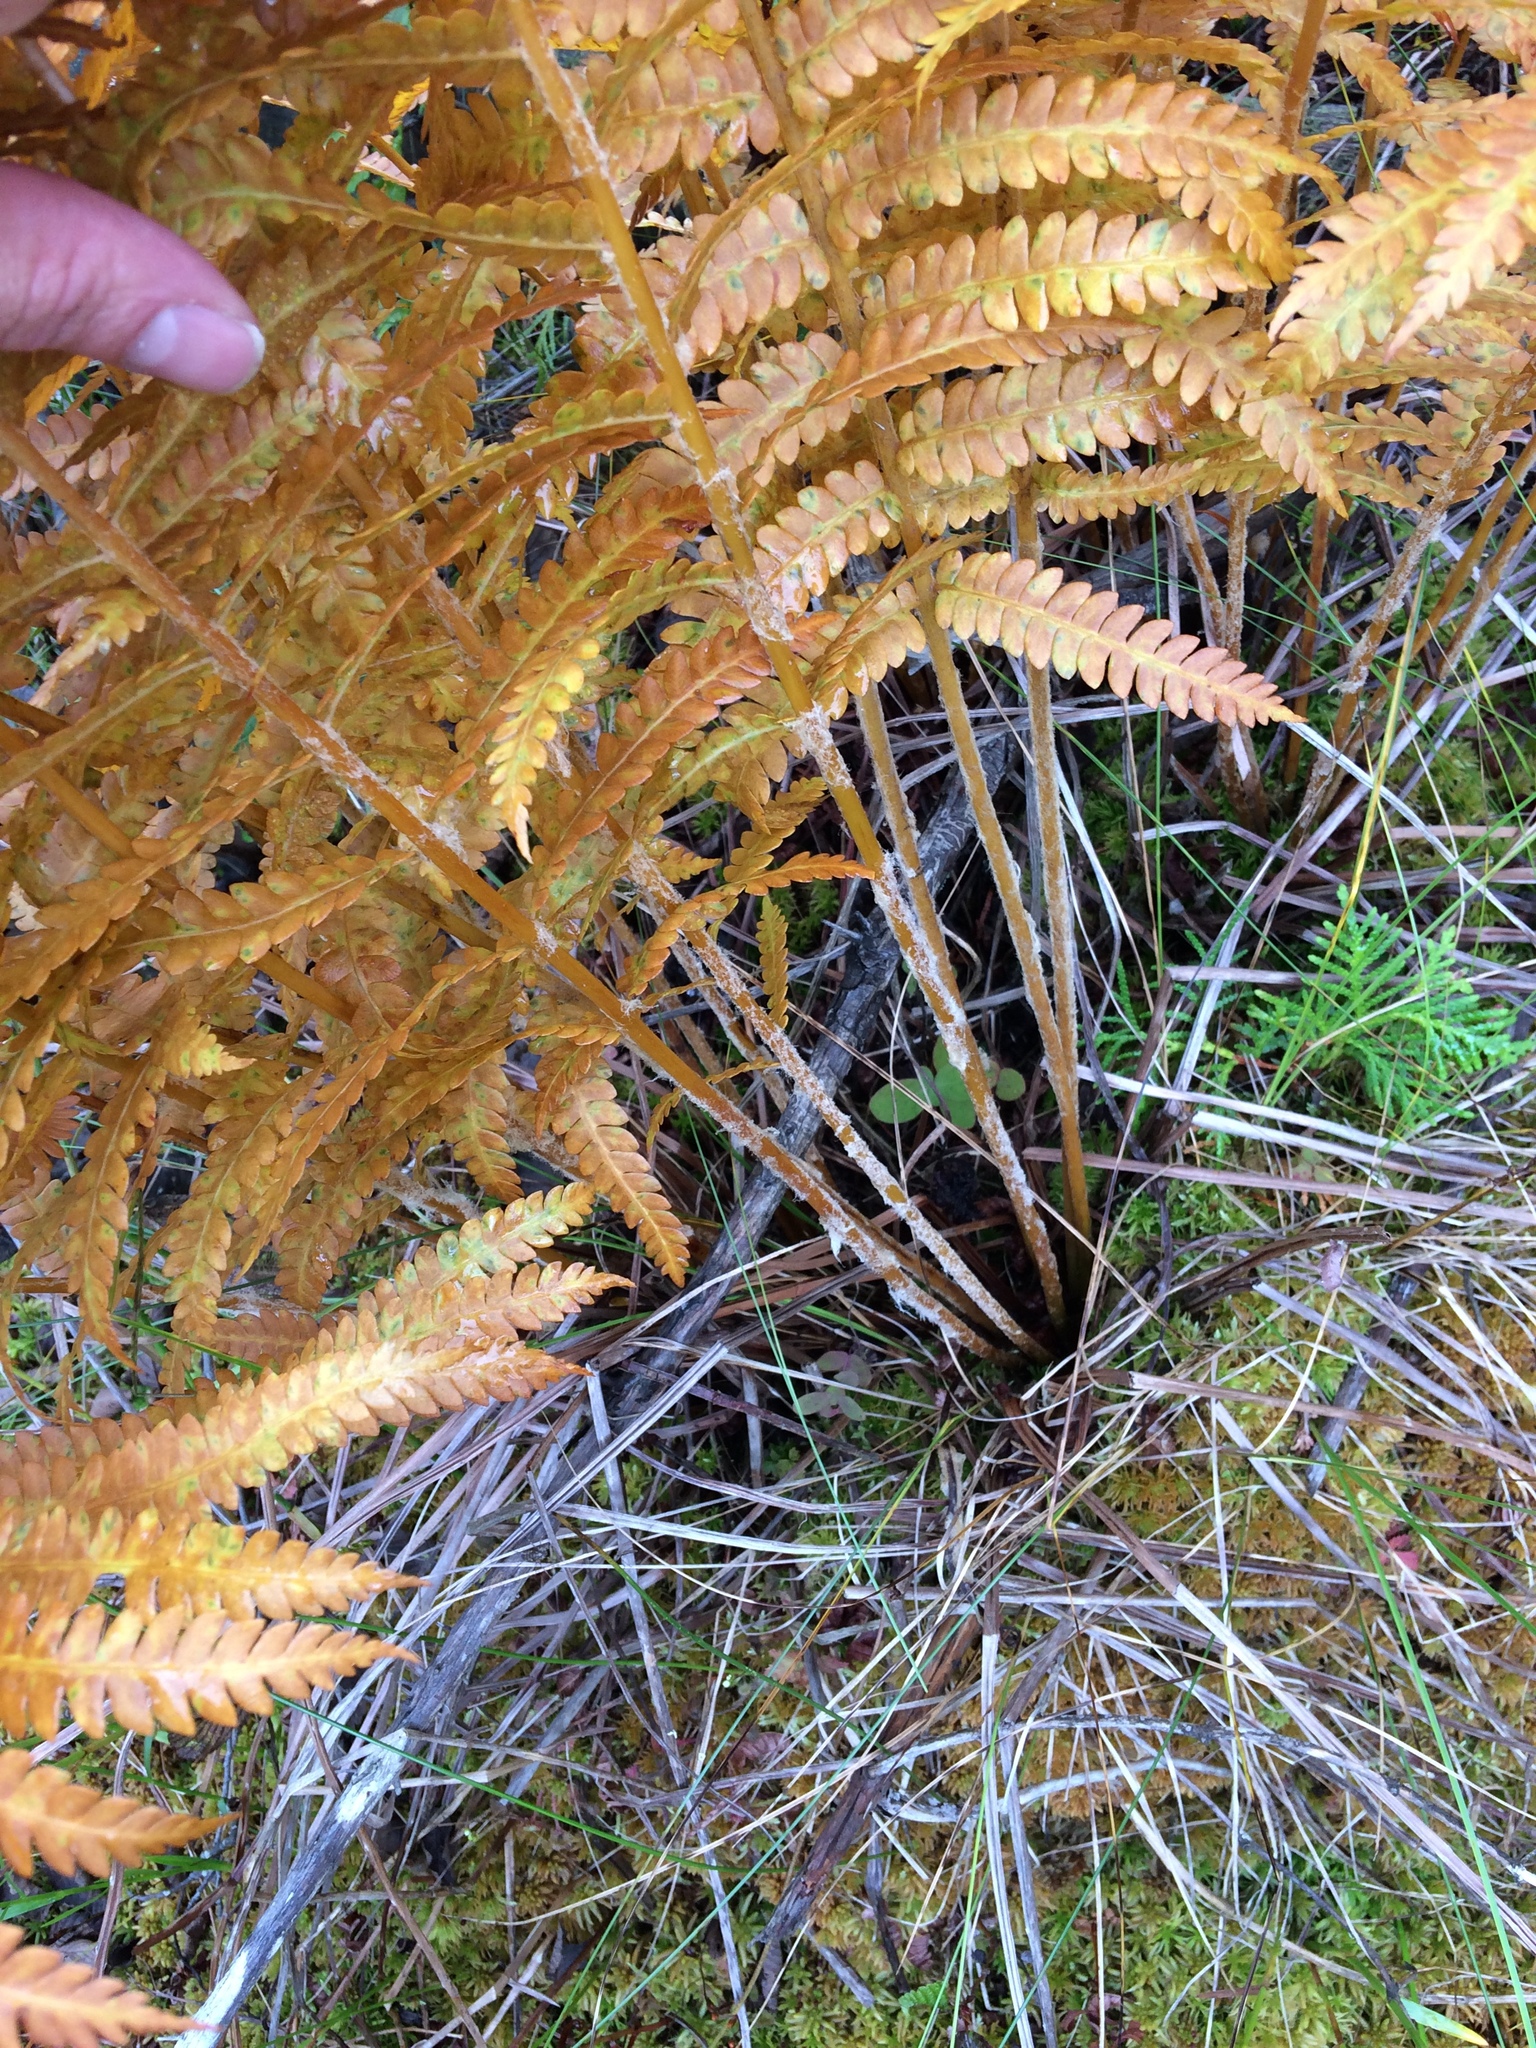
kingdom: Plantae
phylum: Tracheophyta
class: Polypodiopsida
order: Osmundales
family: Osmundaceae
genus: Osmundastrum
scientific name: Osmundastrum cinnamomeum
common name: Cinnamon fern
